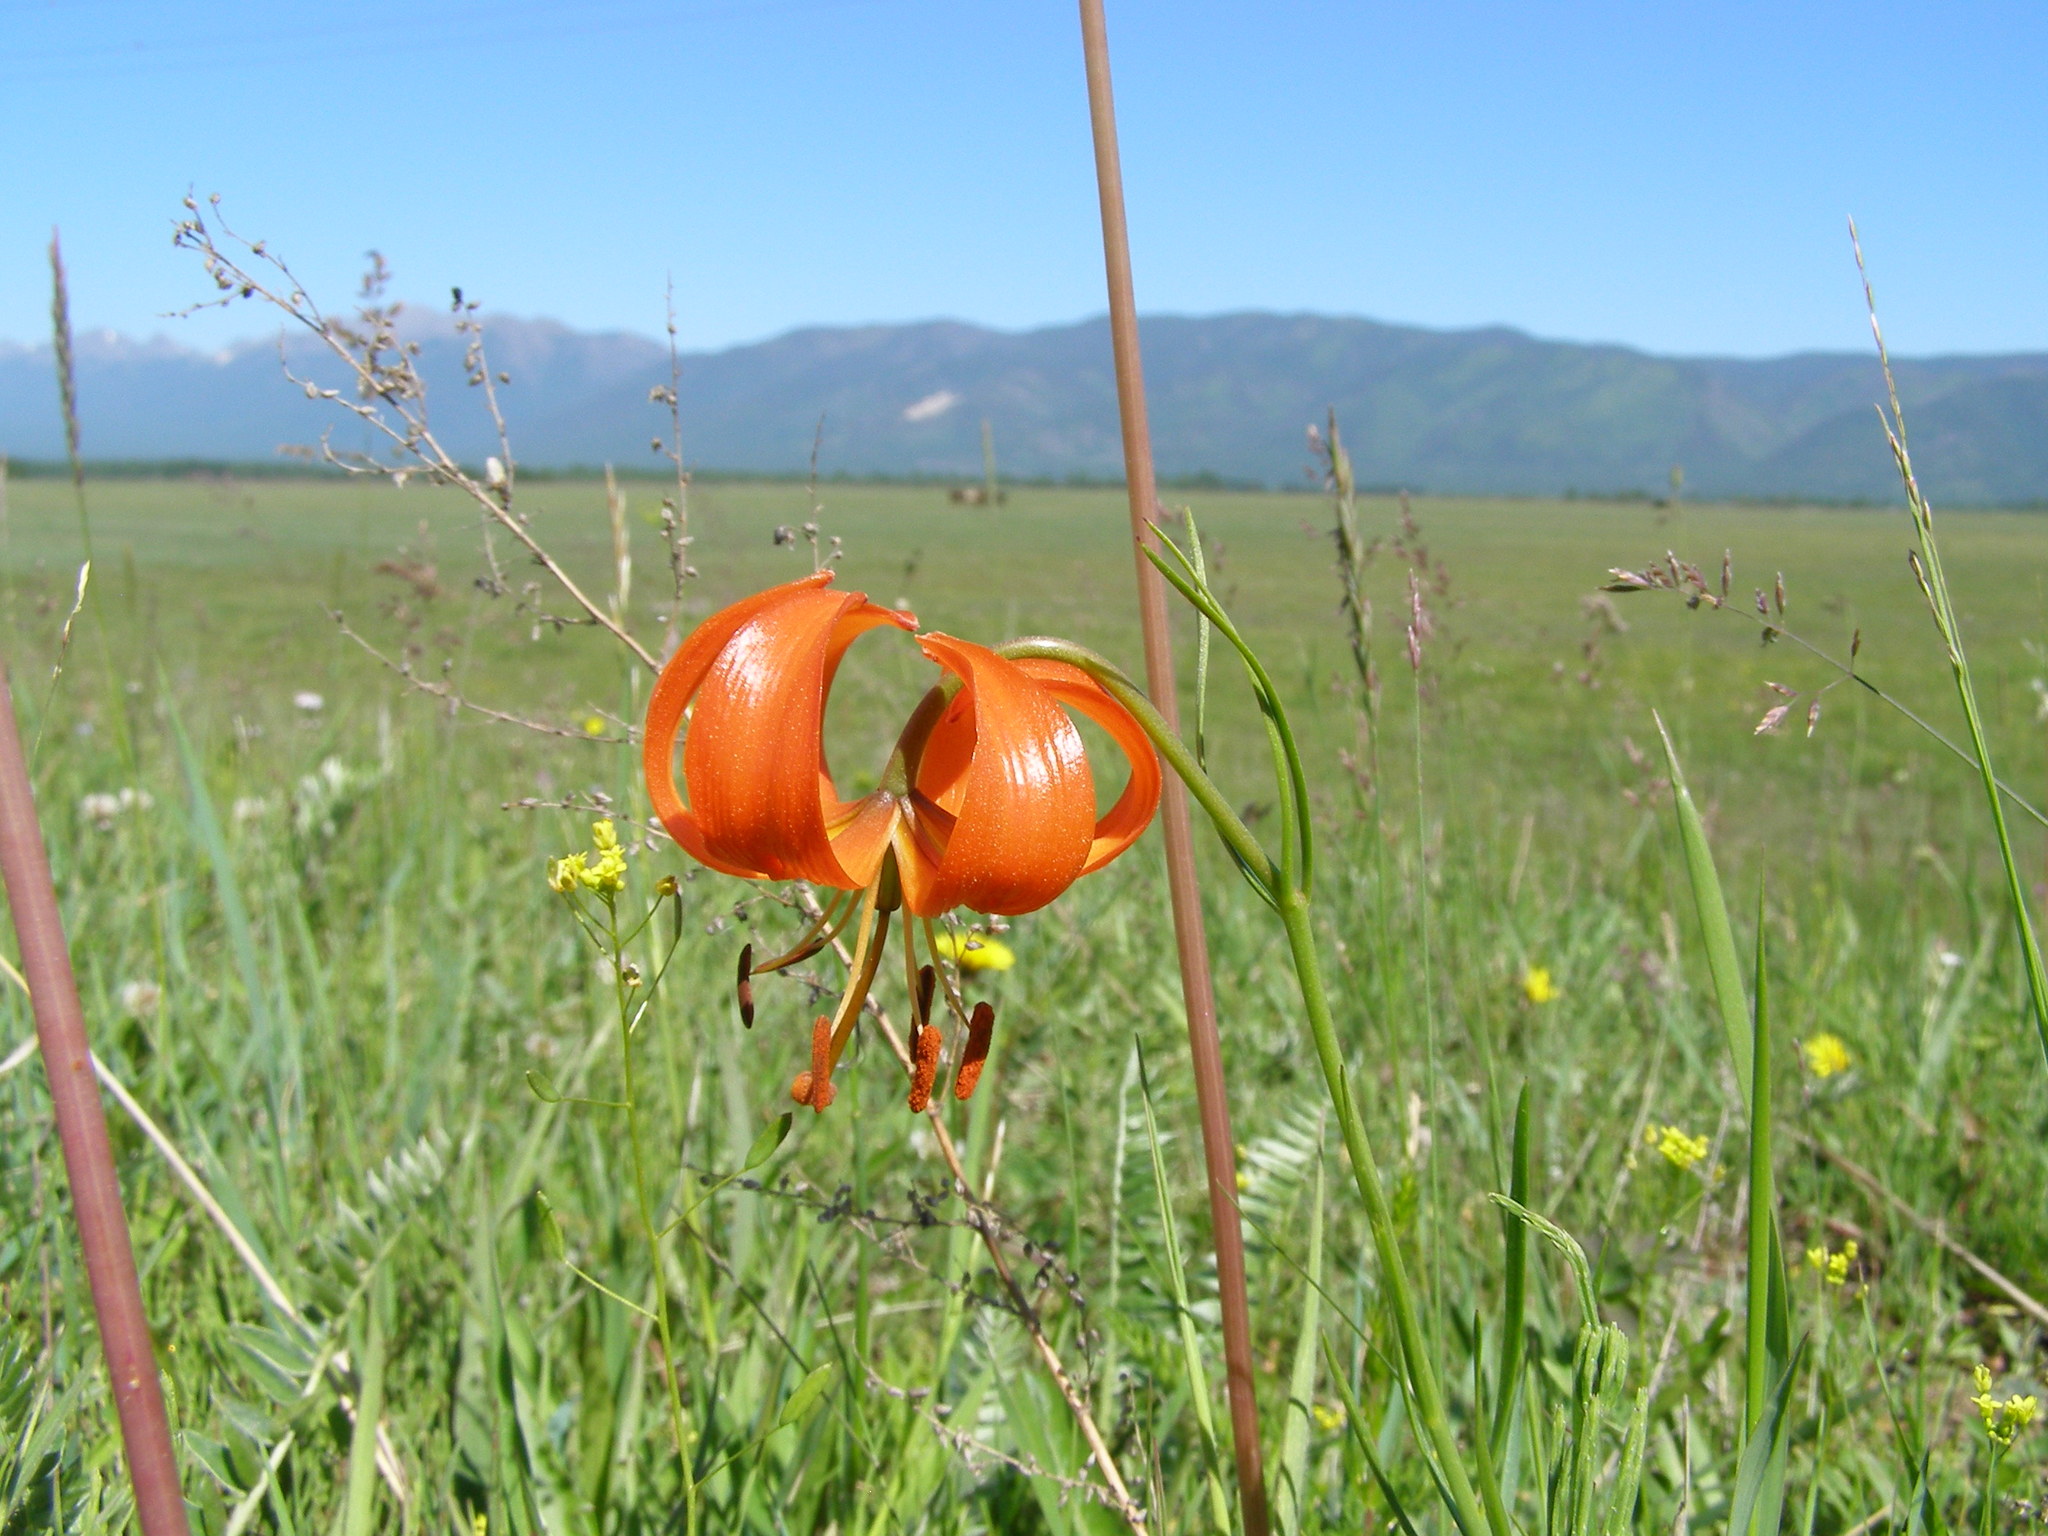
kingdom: Plantae
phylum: Tracheophyta
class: Liliopsida
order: Liliales
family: Liliaceae
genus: Lilium
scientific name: Lilium pumilum
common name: Coral lily
